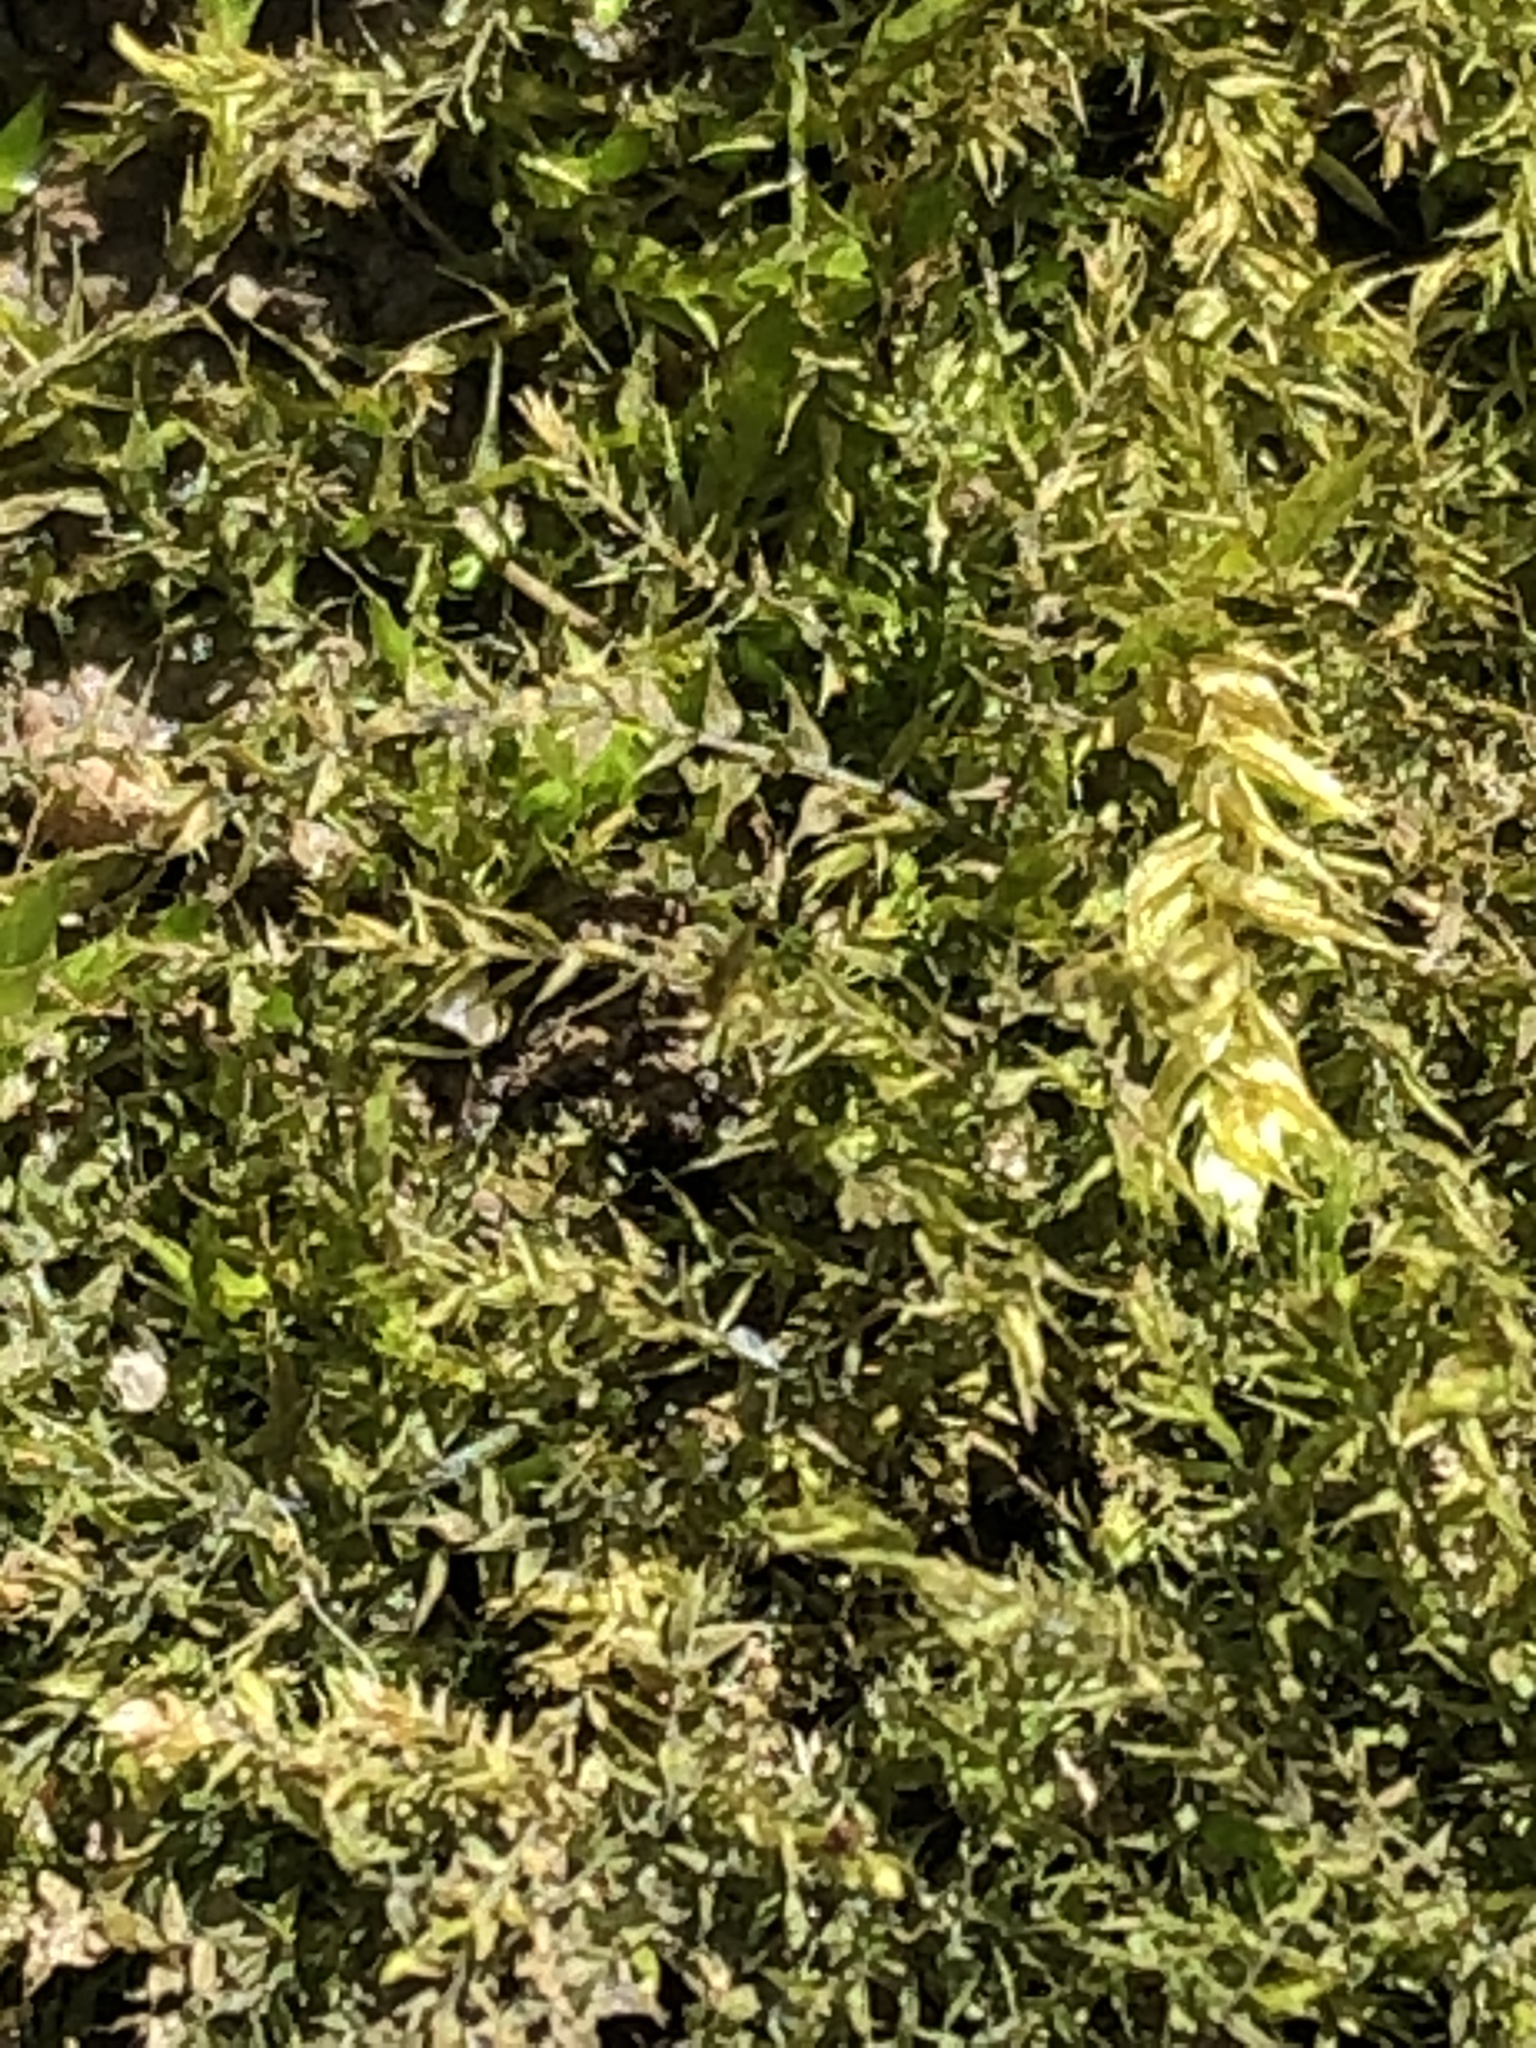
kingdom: Plantae
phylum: Bryophyta
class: Bryopsida
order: Hypnales
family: Amblystegiaceae
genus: Leptodictyum
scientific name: Leptodictyum riparium
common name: Riparian feather moss
